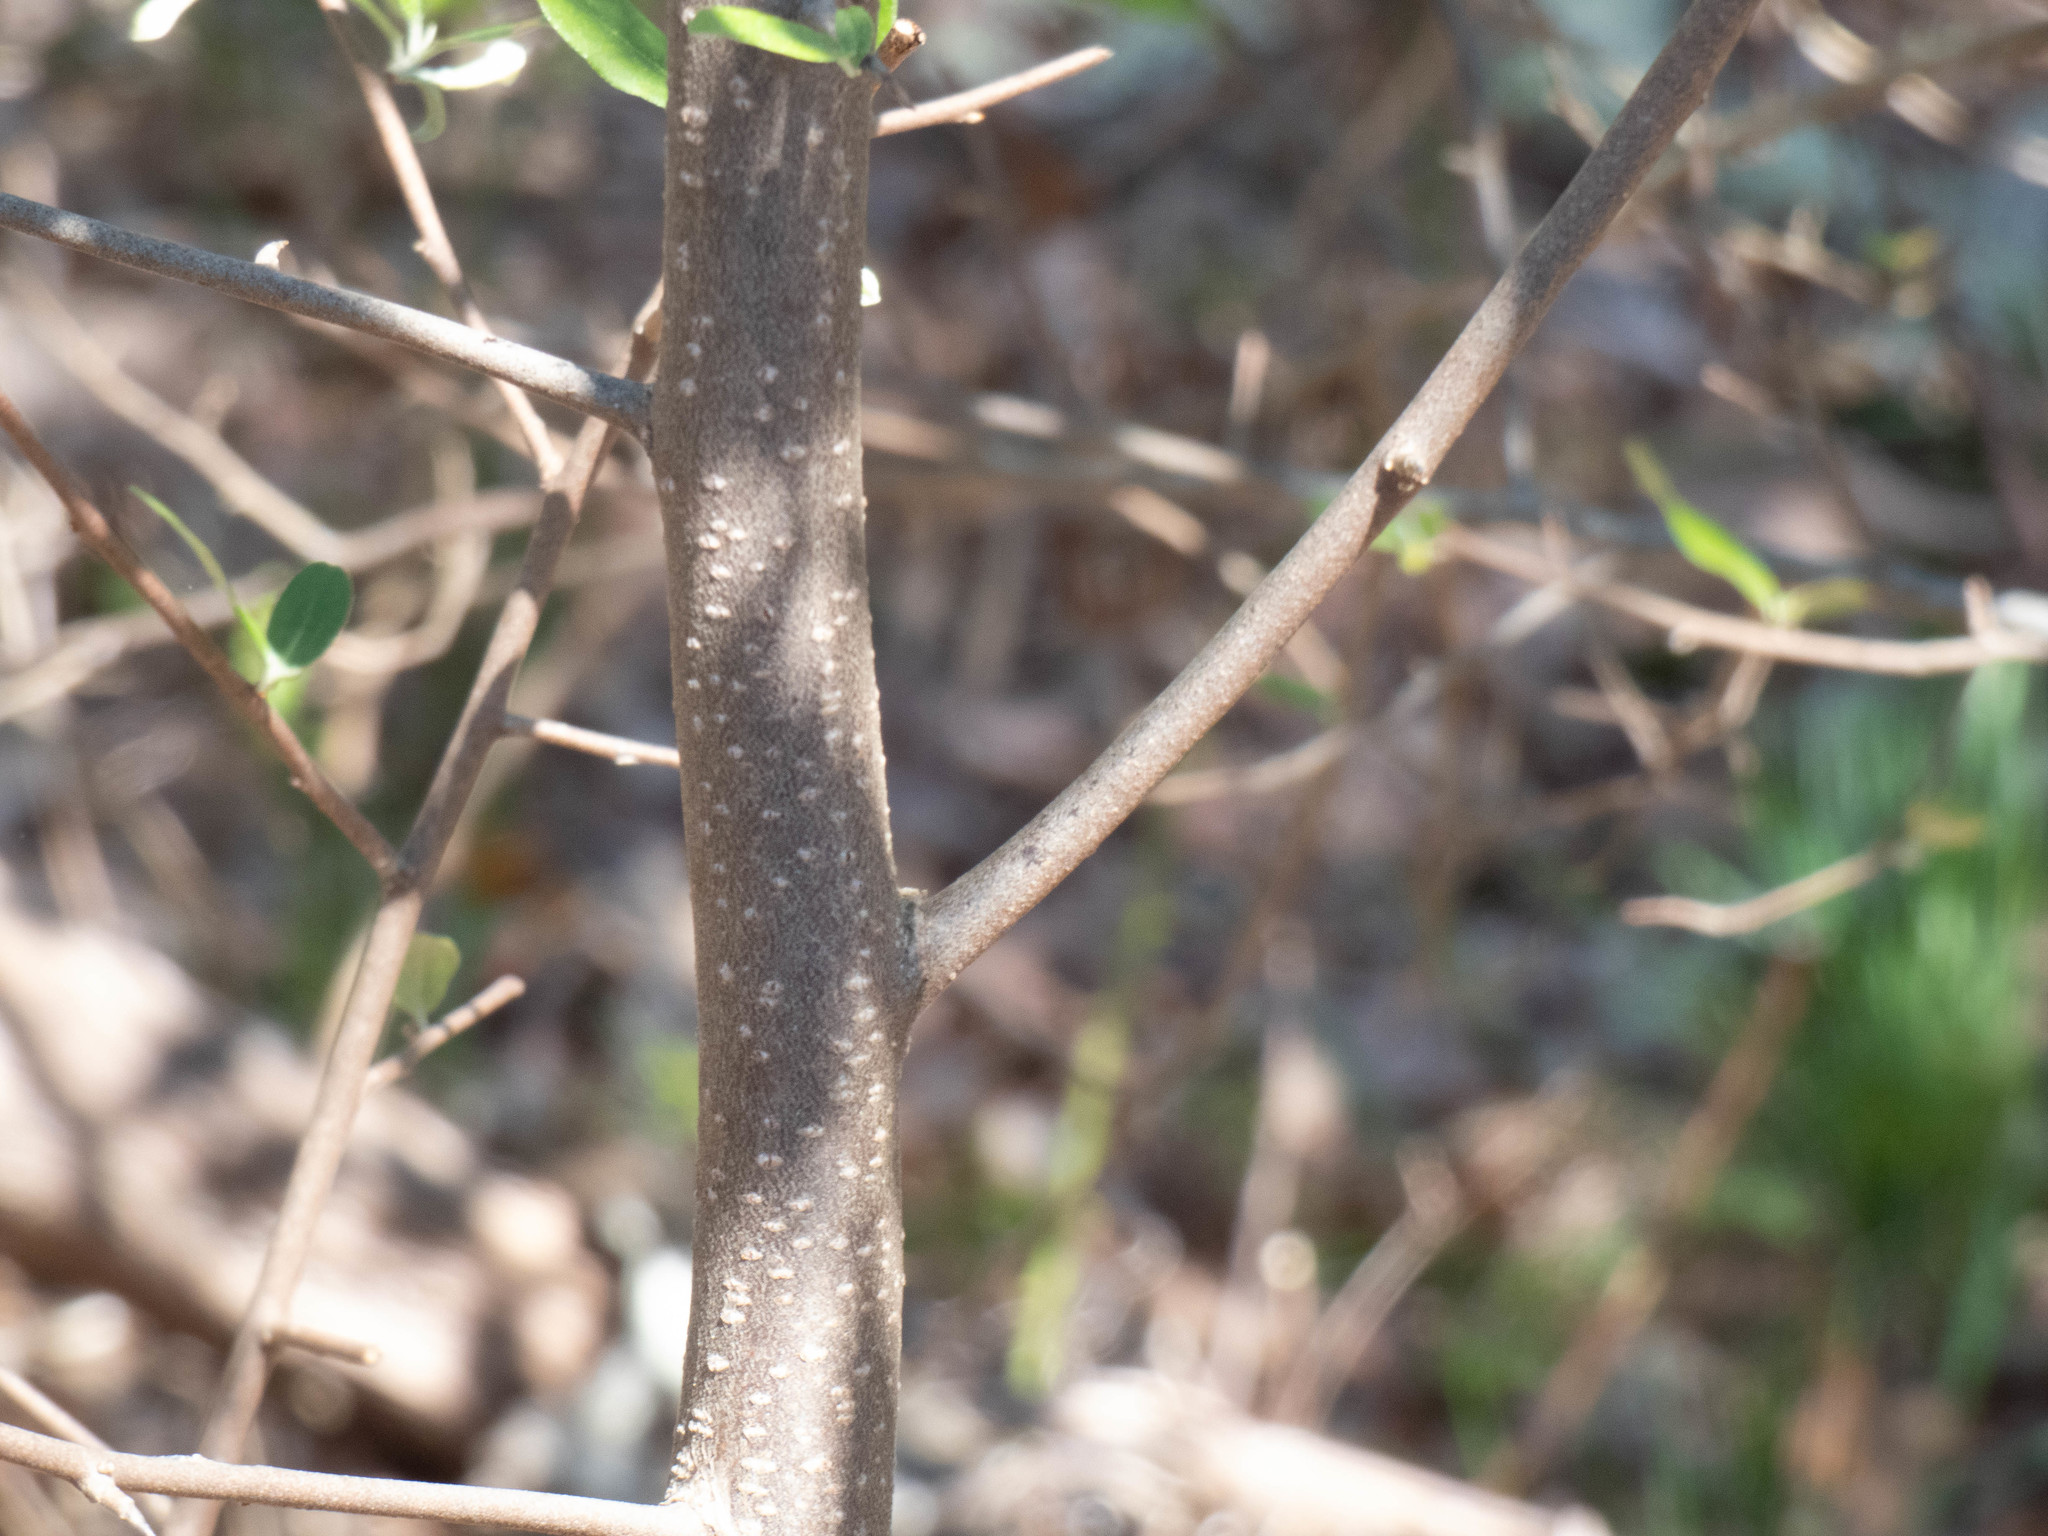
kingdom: Plantae
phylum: Tracheophyta
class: Magnoliopsida
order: Rosales
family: Elaeagnaceae
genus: Elaeagnus
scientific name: Elaeagnus umbellata
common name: Autumn olive
